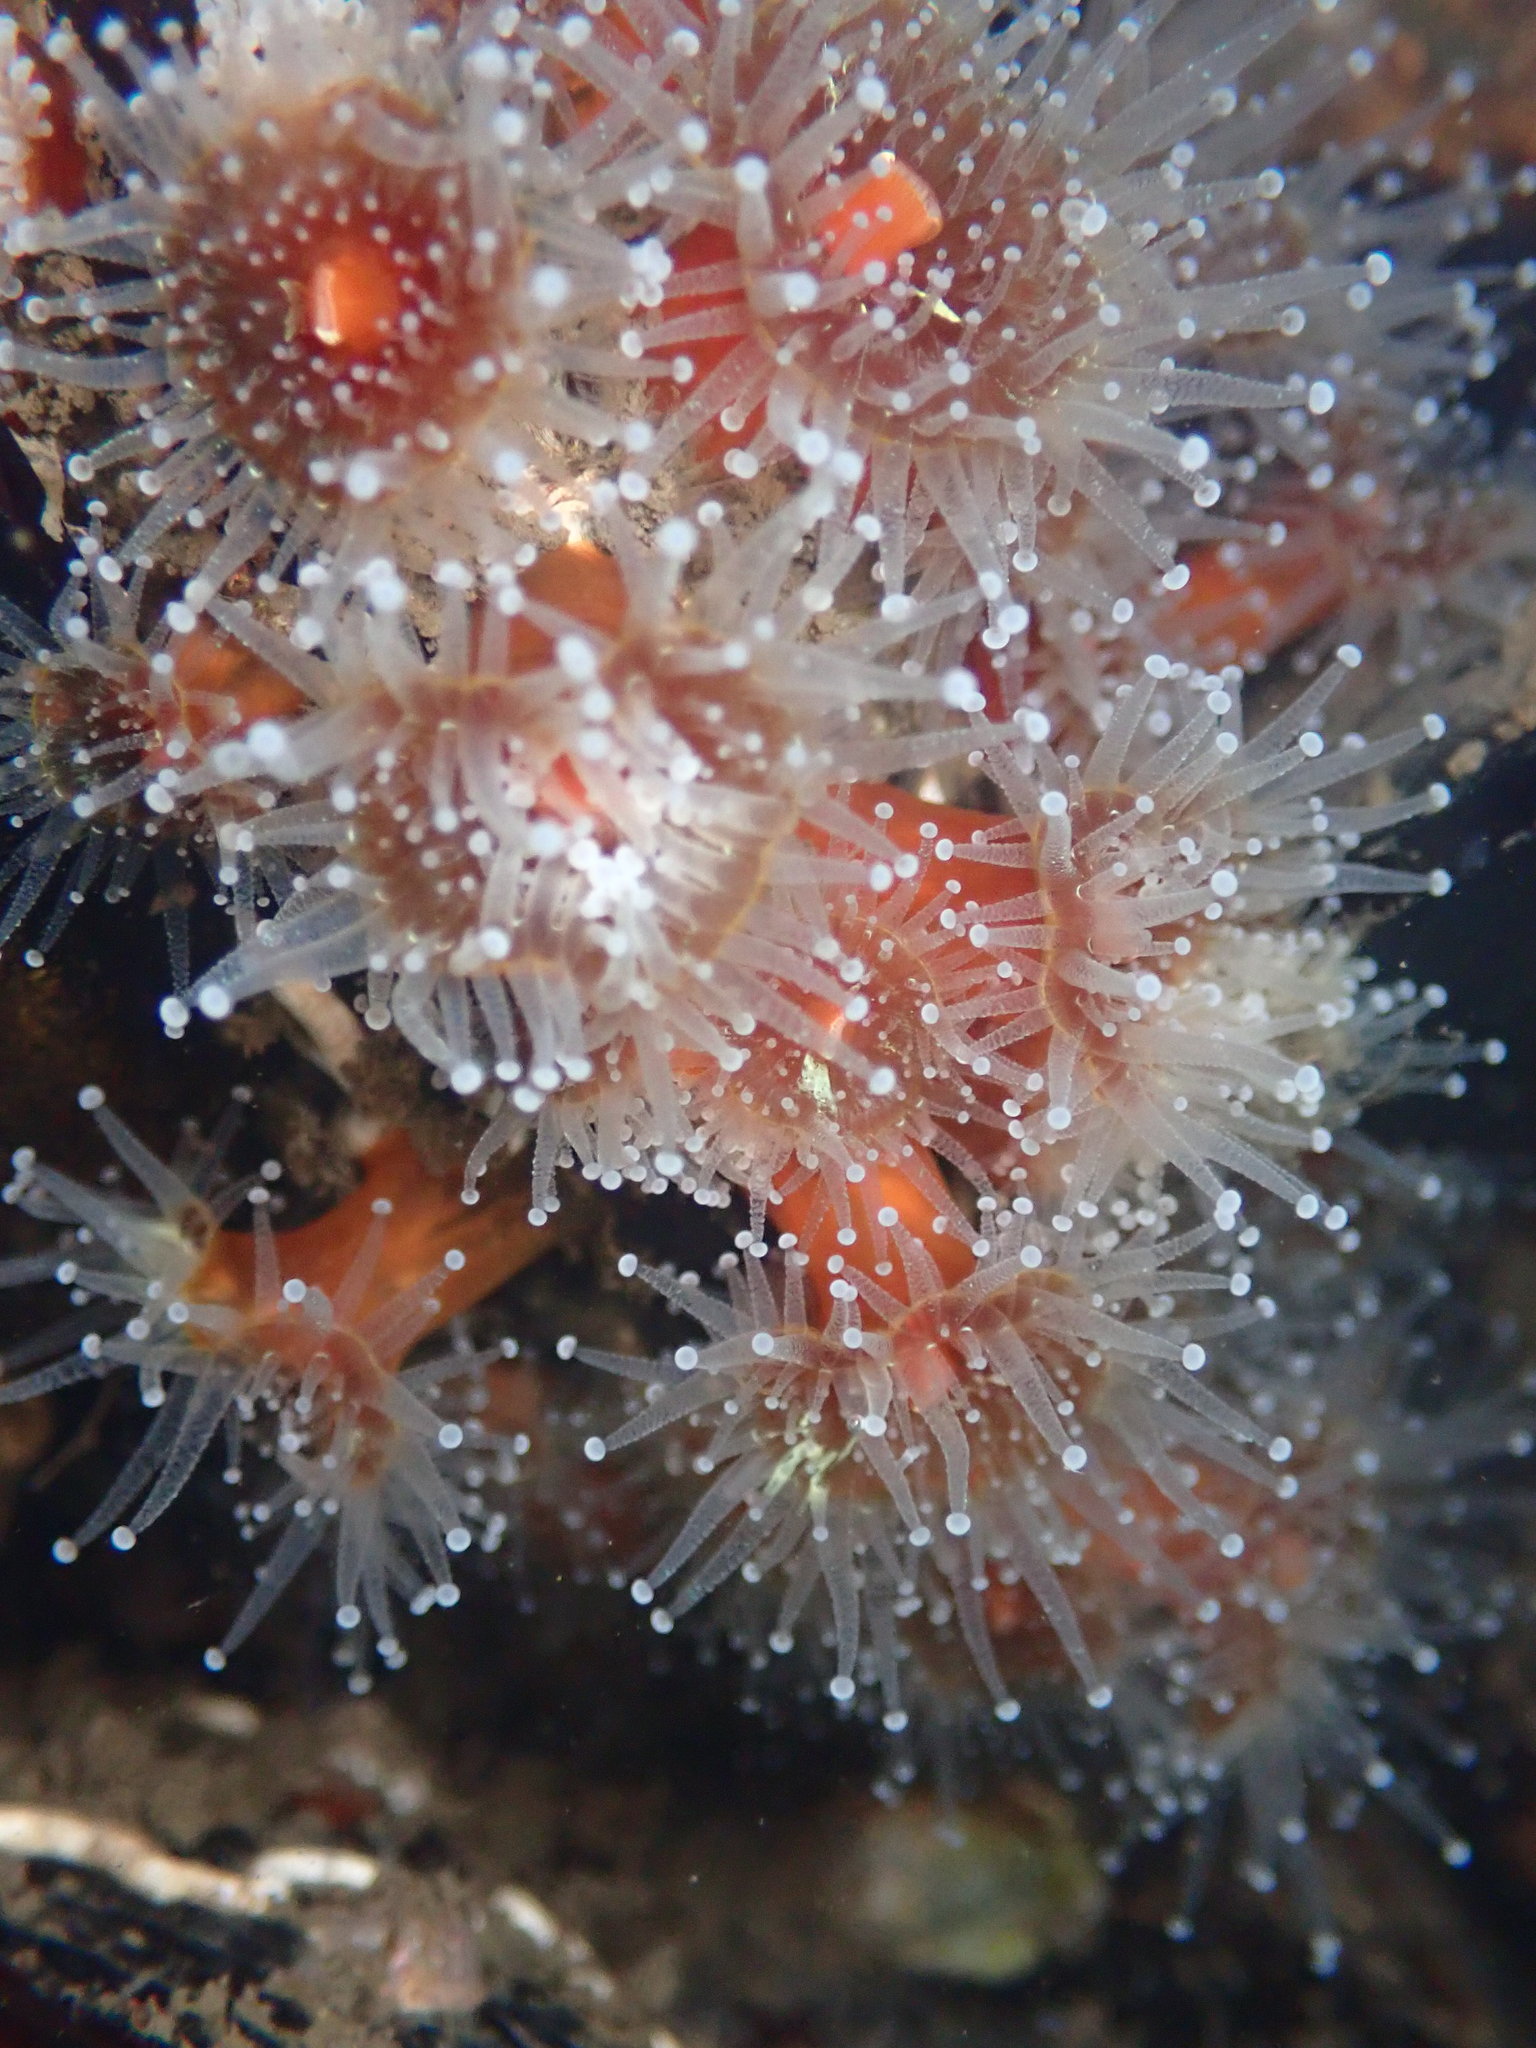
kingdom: Animalia
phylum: Cnidaria
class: Anthozoa
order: Corallimorpharia
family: Corallimorphidae
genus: Corynactis
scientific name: Corynactis californica
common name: Strawberry corallimorpharian
